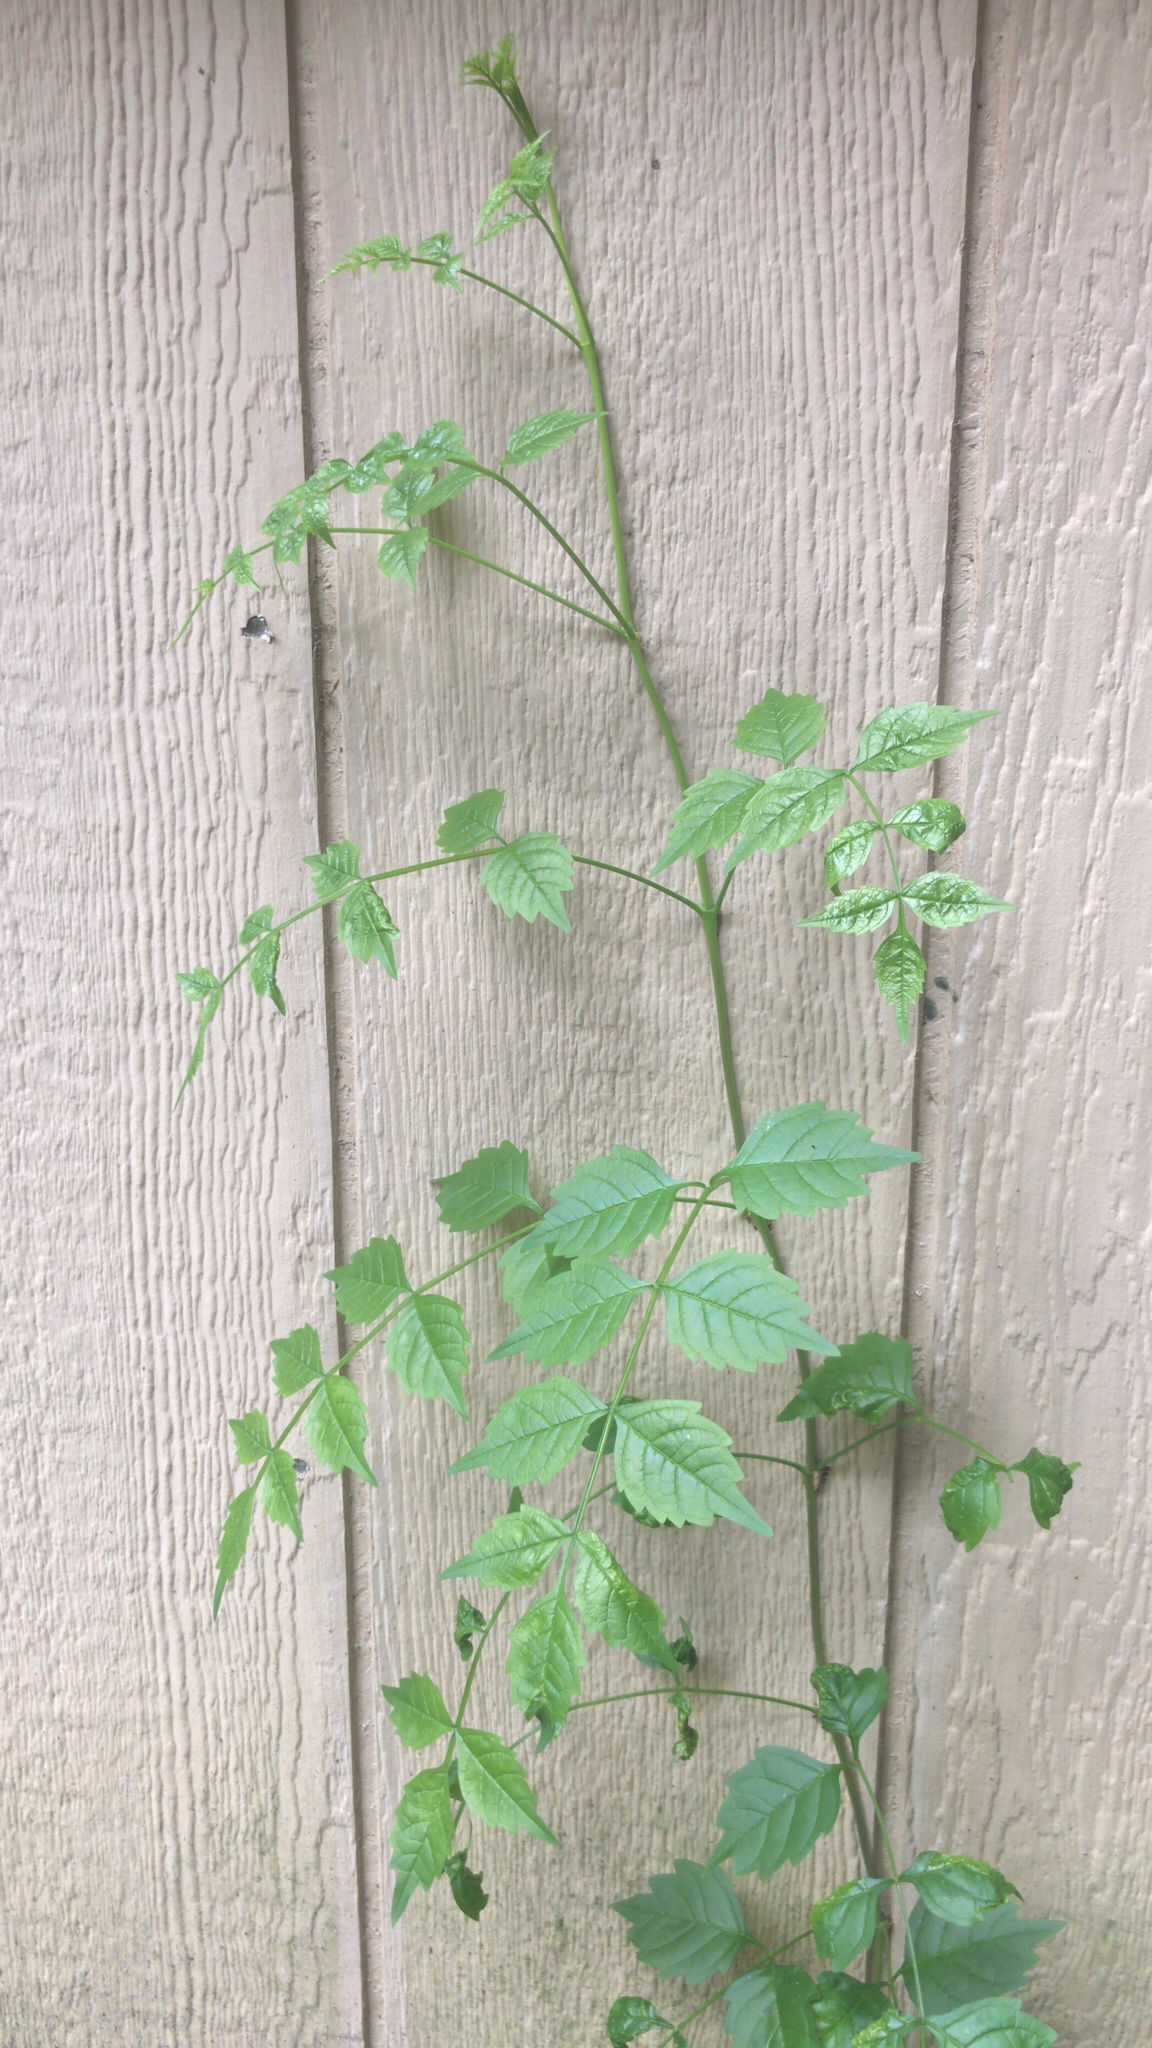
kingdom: Plantae
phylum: Tracheophyta
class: Magnoliopsida
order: Lamiales
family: Bignoniaceae
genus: Campsis
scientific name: Campsis radicans
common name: Trumpet-creeper
